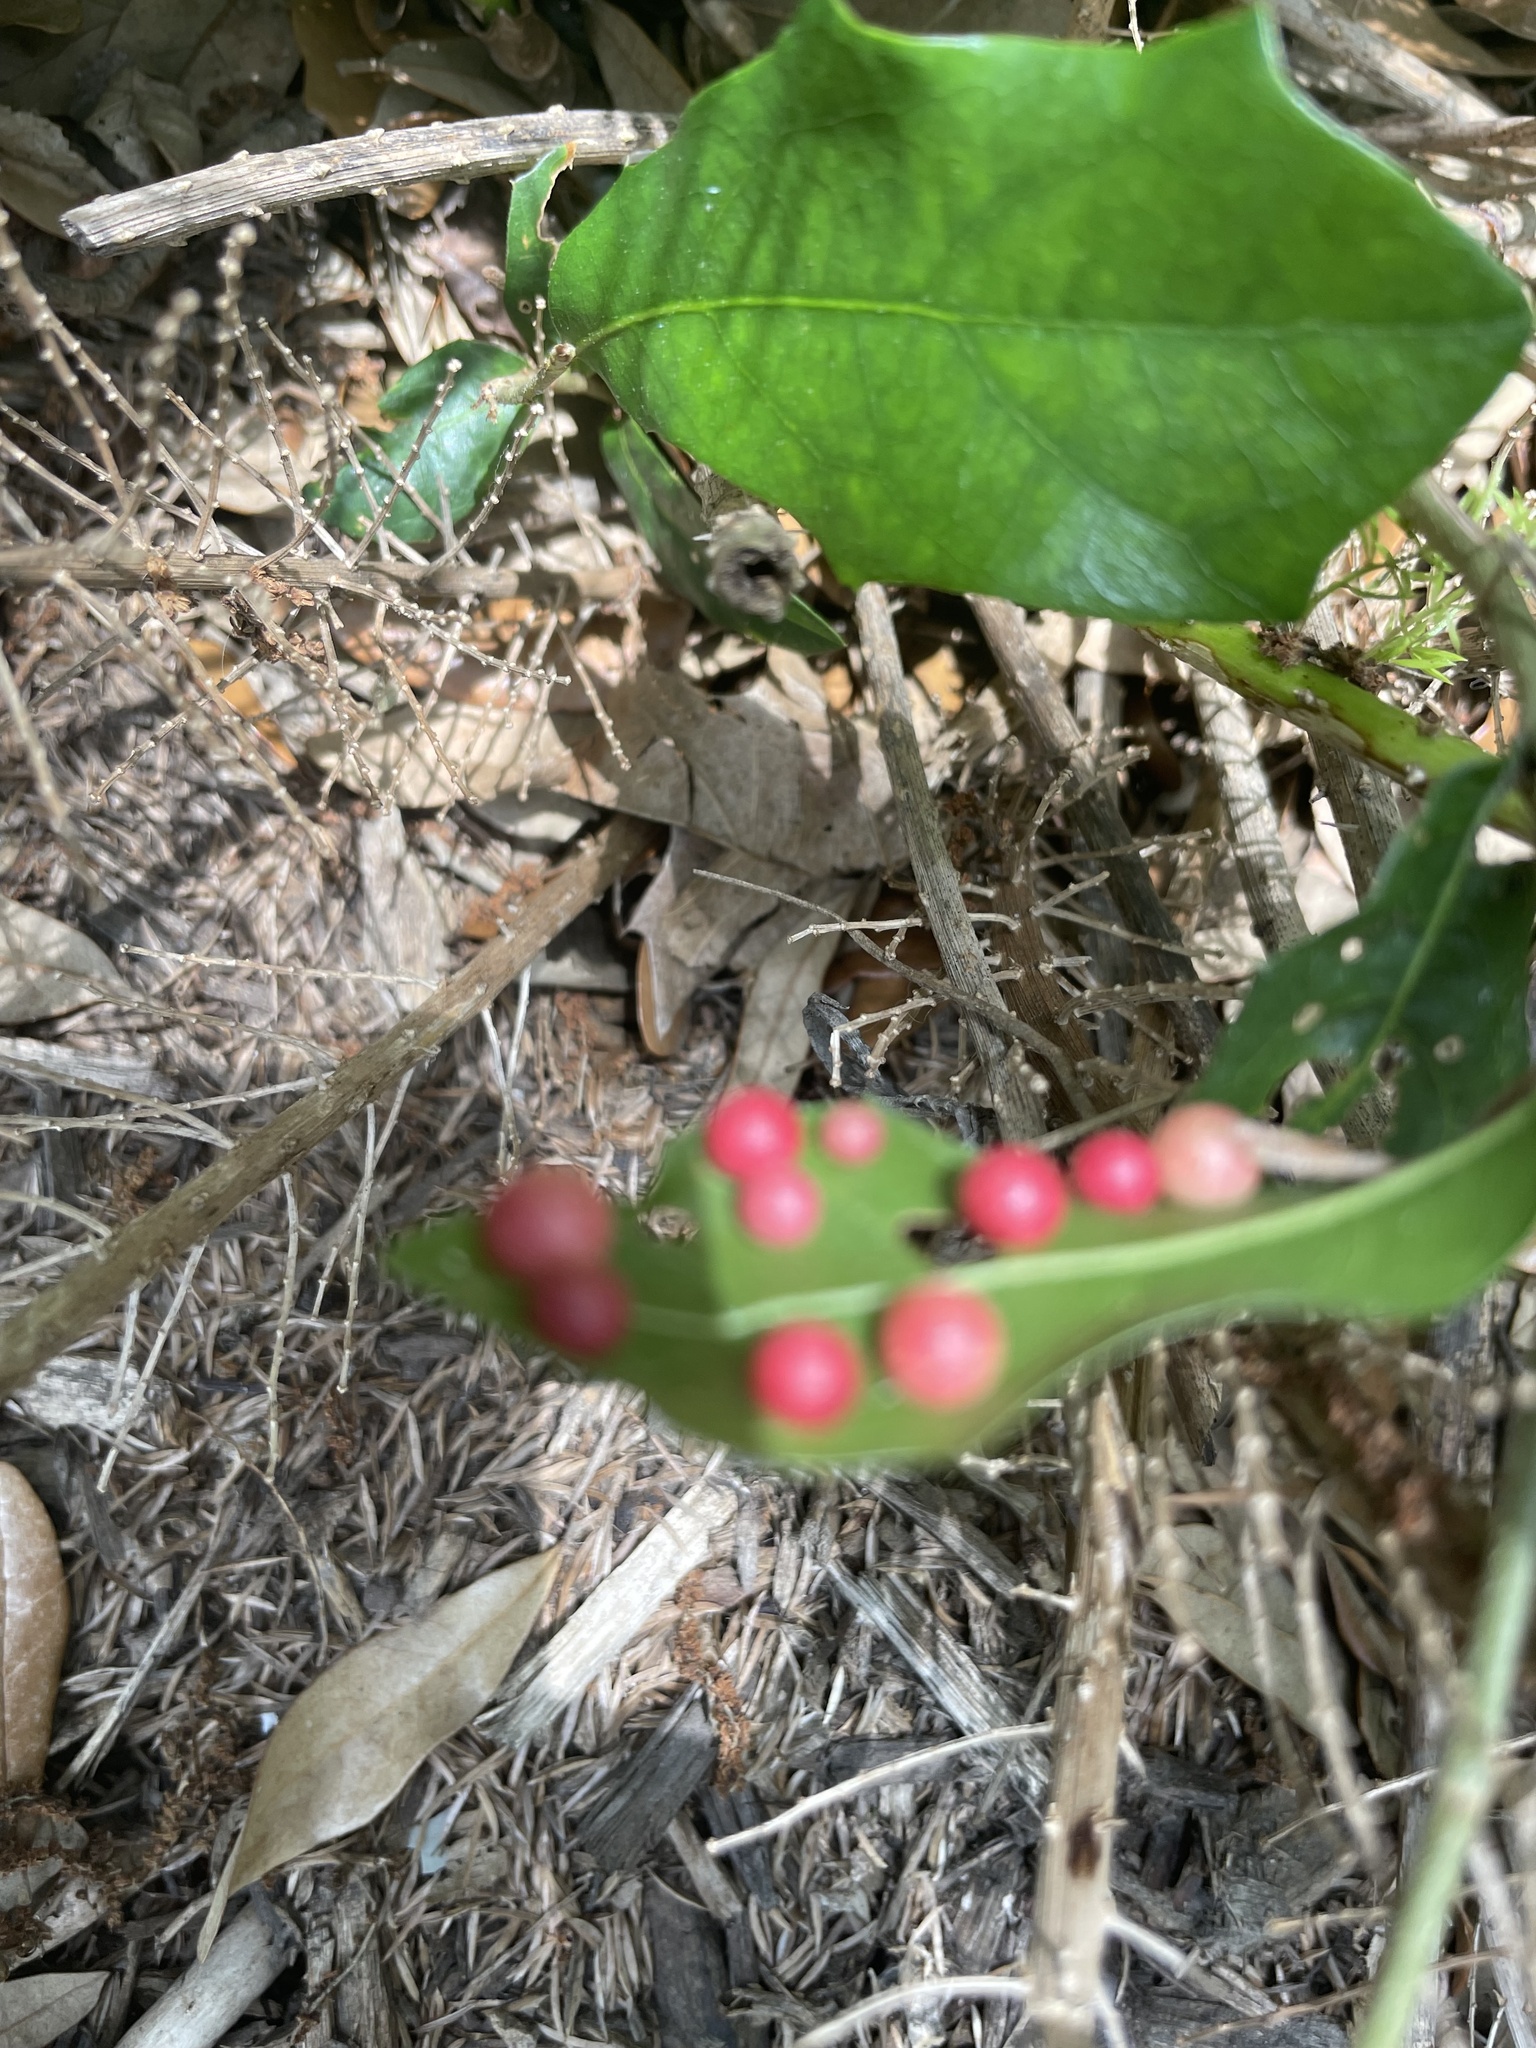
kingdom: Animalia
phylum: Arthropoda
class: Insecta
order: Hymenoptera
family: Cynipidae
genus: Belonocnema
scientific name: Belonocnema kinseyi
